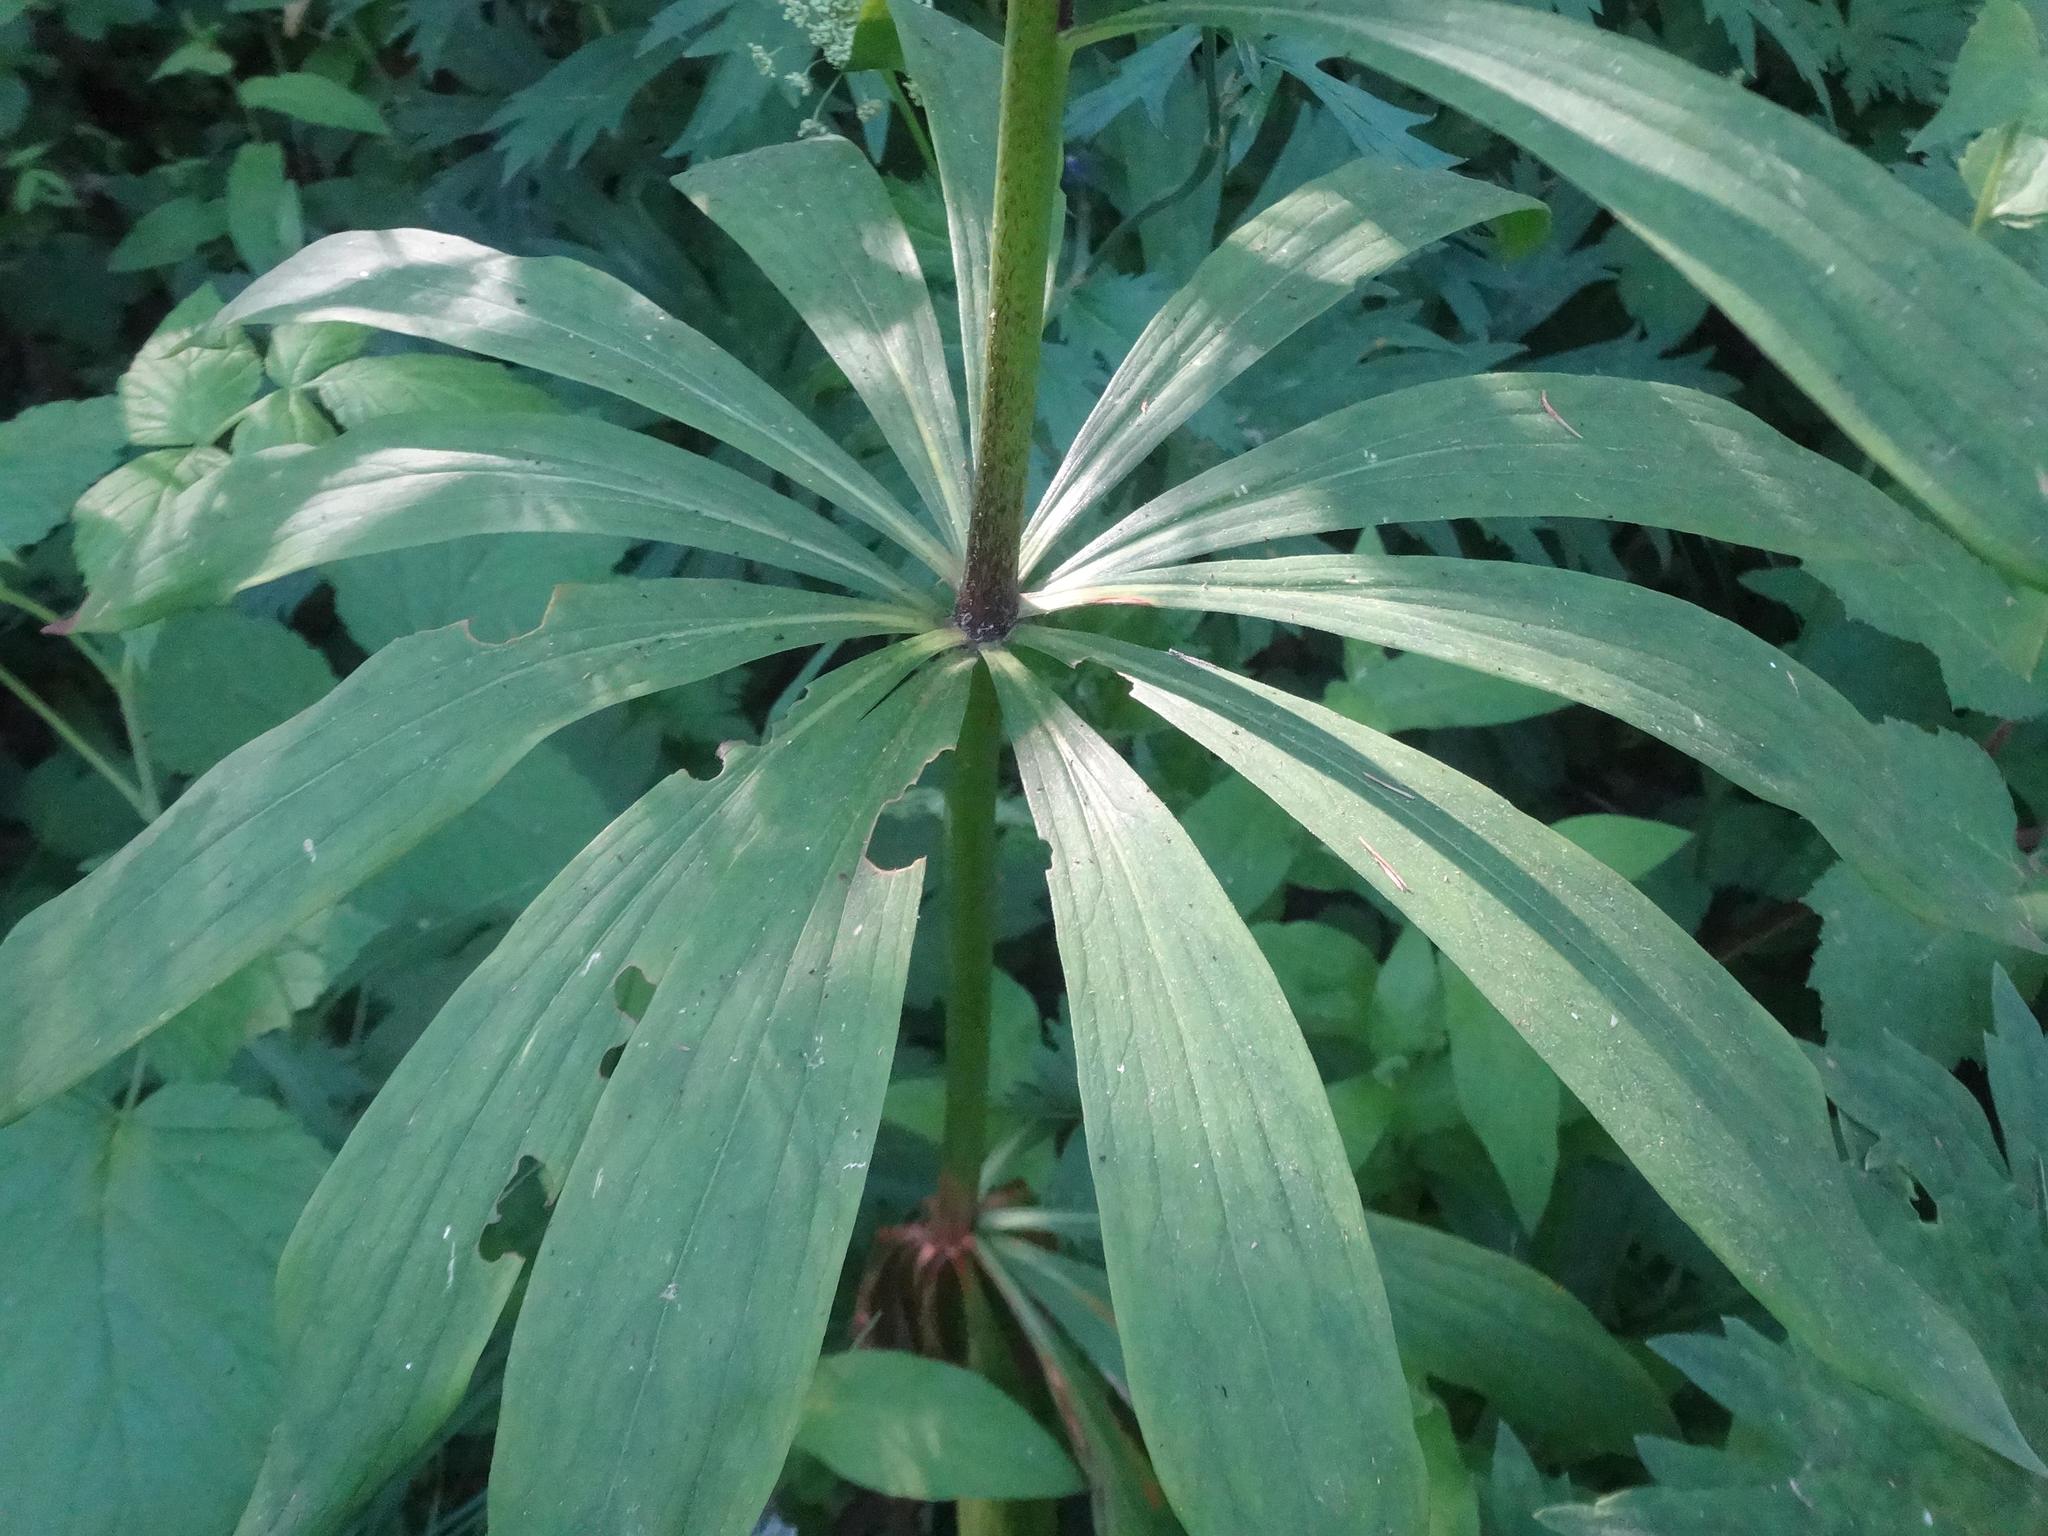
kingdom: Plantae
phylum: Tracheophyta
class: Liliopsida
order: Liliales
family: Liliaceae
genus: Lilium
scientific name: Lilium martagon
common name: Martagon lily
